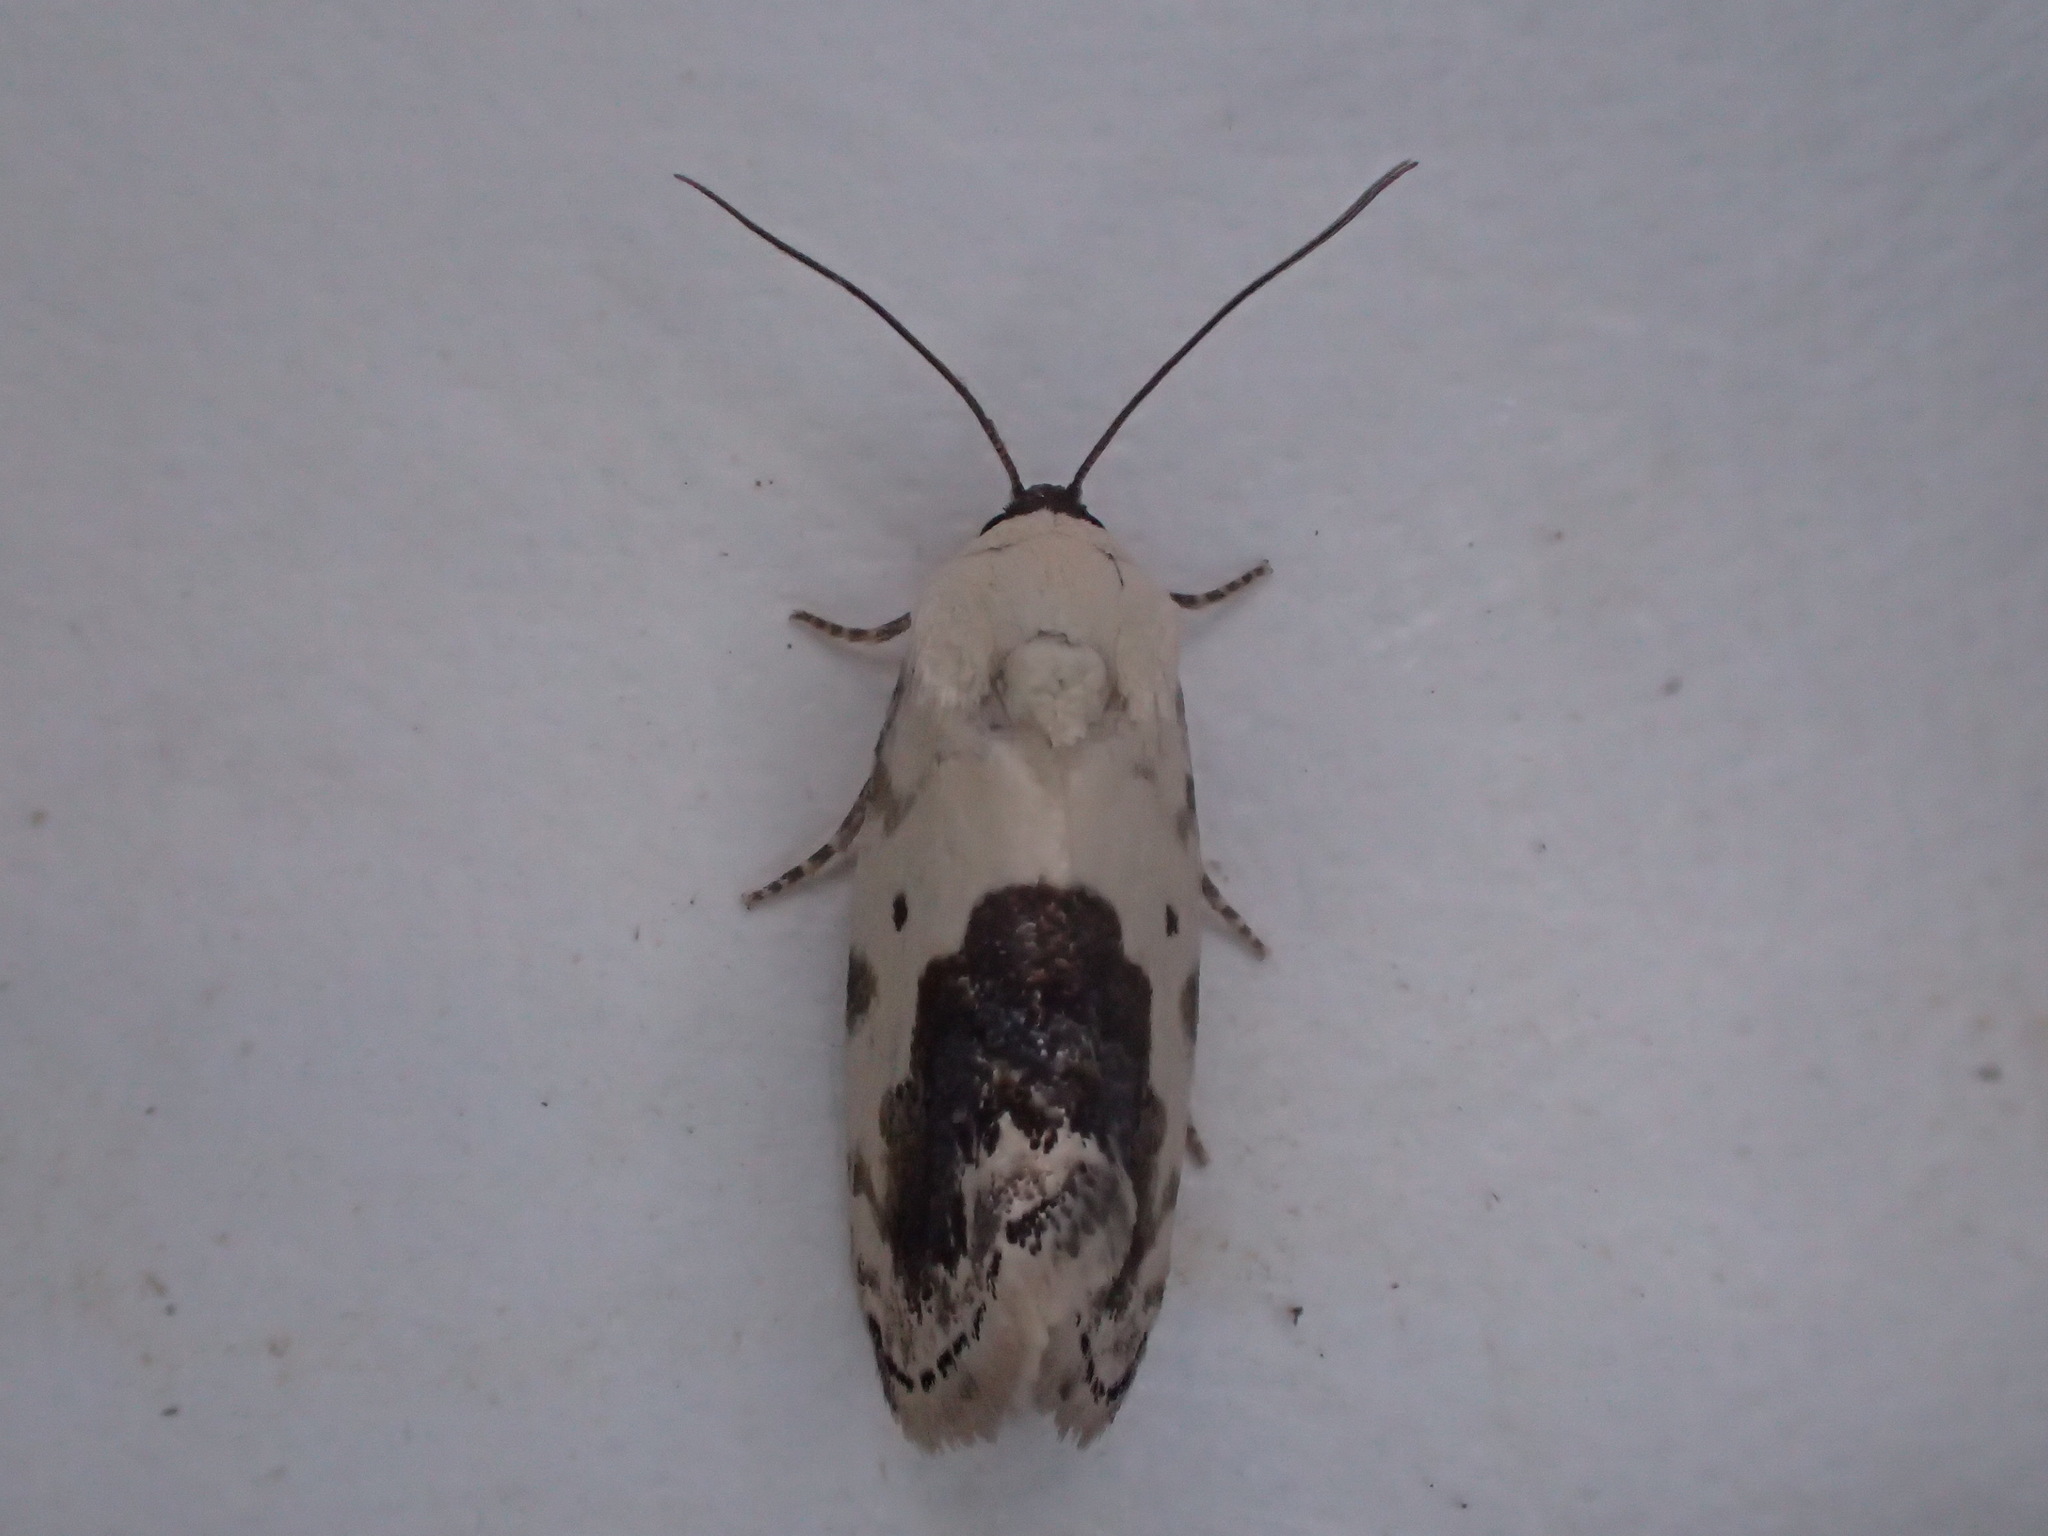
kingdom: Animalia
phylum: Arthropoda
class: Insecta
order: Lepidoptera
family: Noctuidae
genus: Acontia
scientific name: Acontia erastrioides
